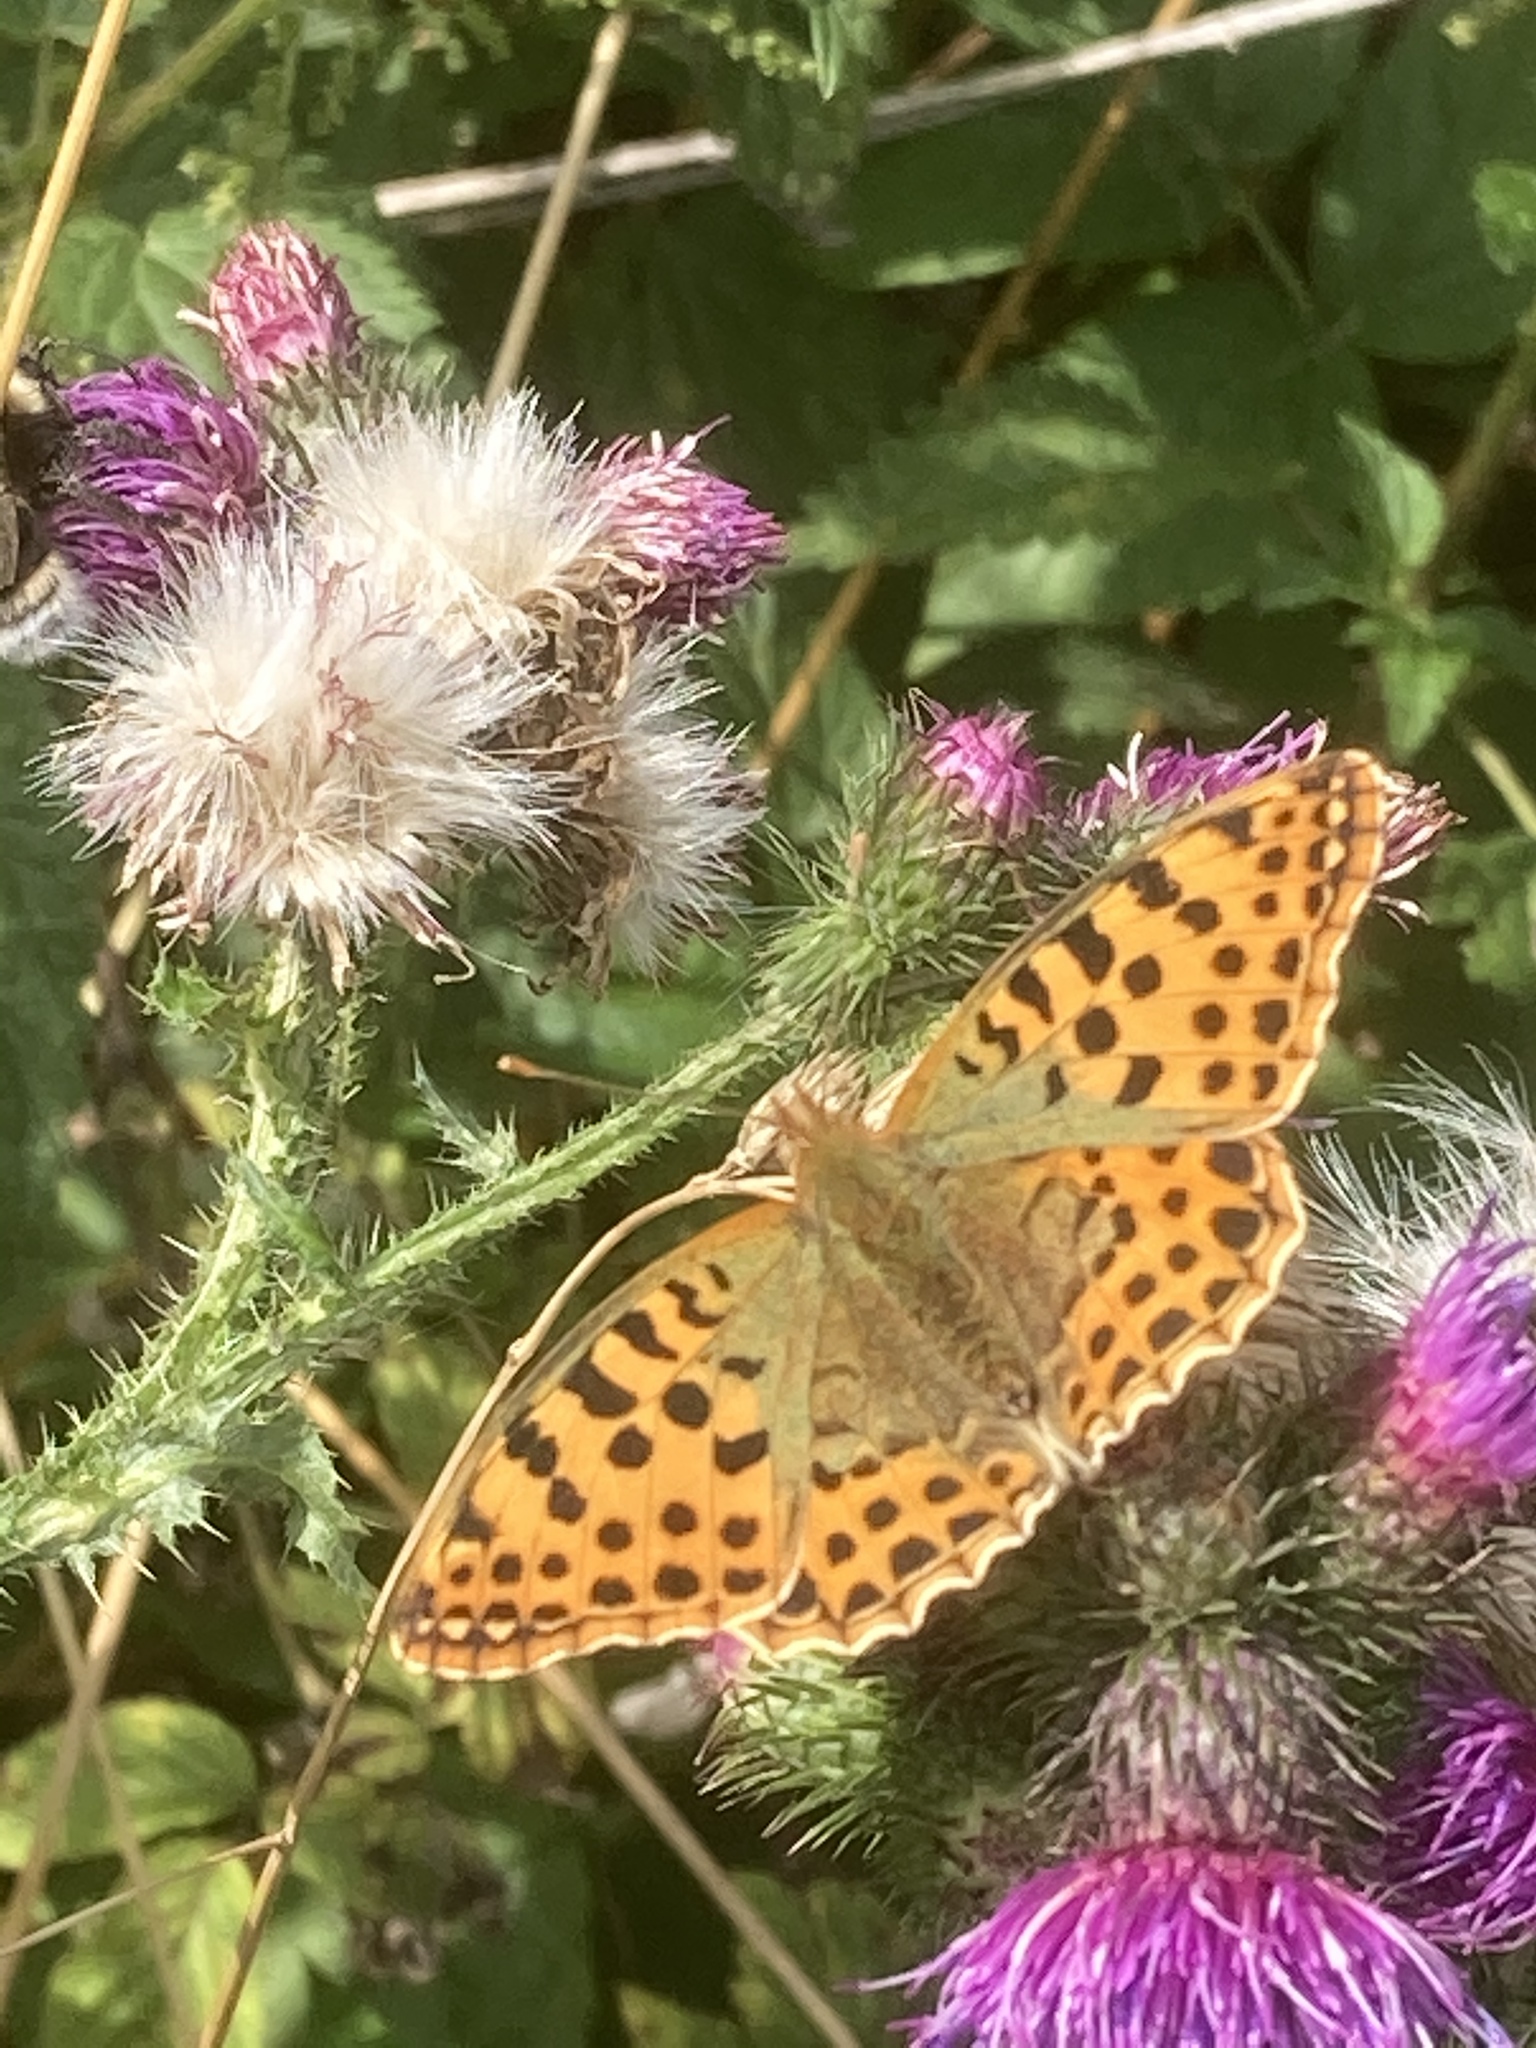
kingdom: Animalia
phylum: Arthropoda
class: Insecta
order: Lepidoptera
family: Nymphalidae
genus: Issoria
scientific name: Issoria lathonia
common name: Queen of spain fritillary
